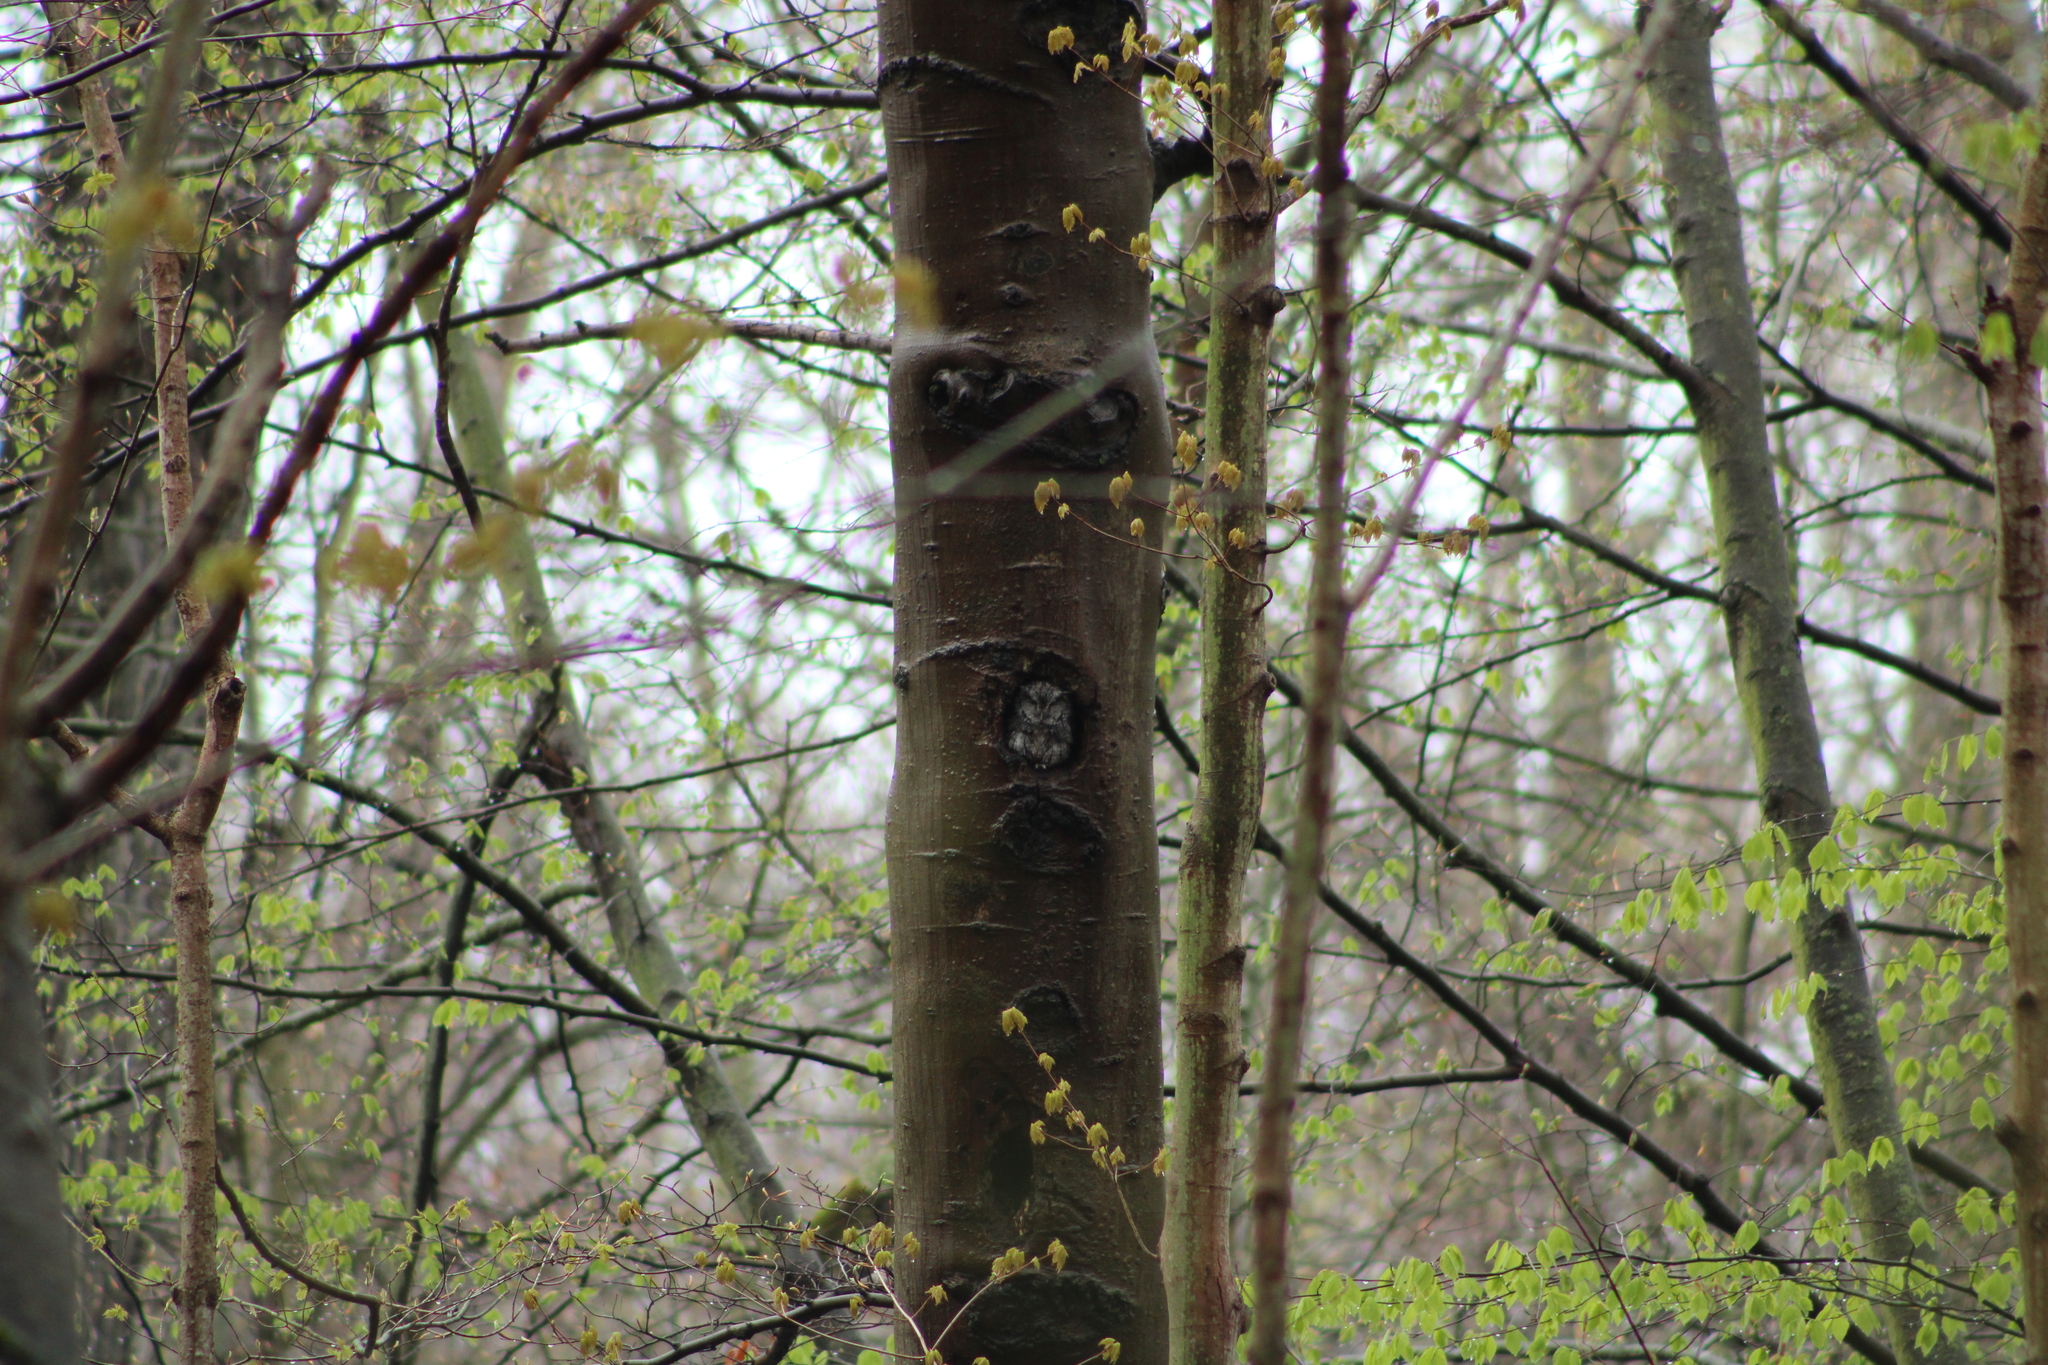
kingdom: Animalia
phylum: Chordata
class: Aves
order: Strigiformes
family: Strigidae
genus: Megascops
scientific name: Megascops asio
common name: Eastern screech-owl
